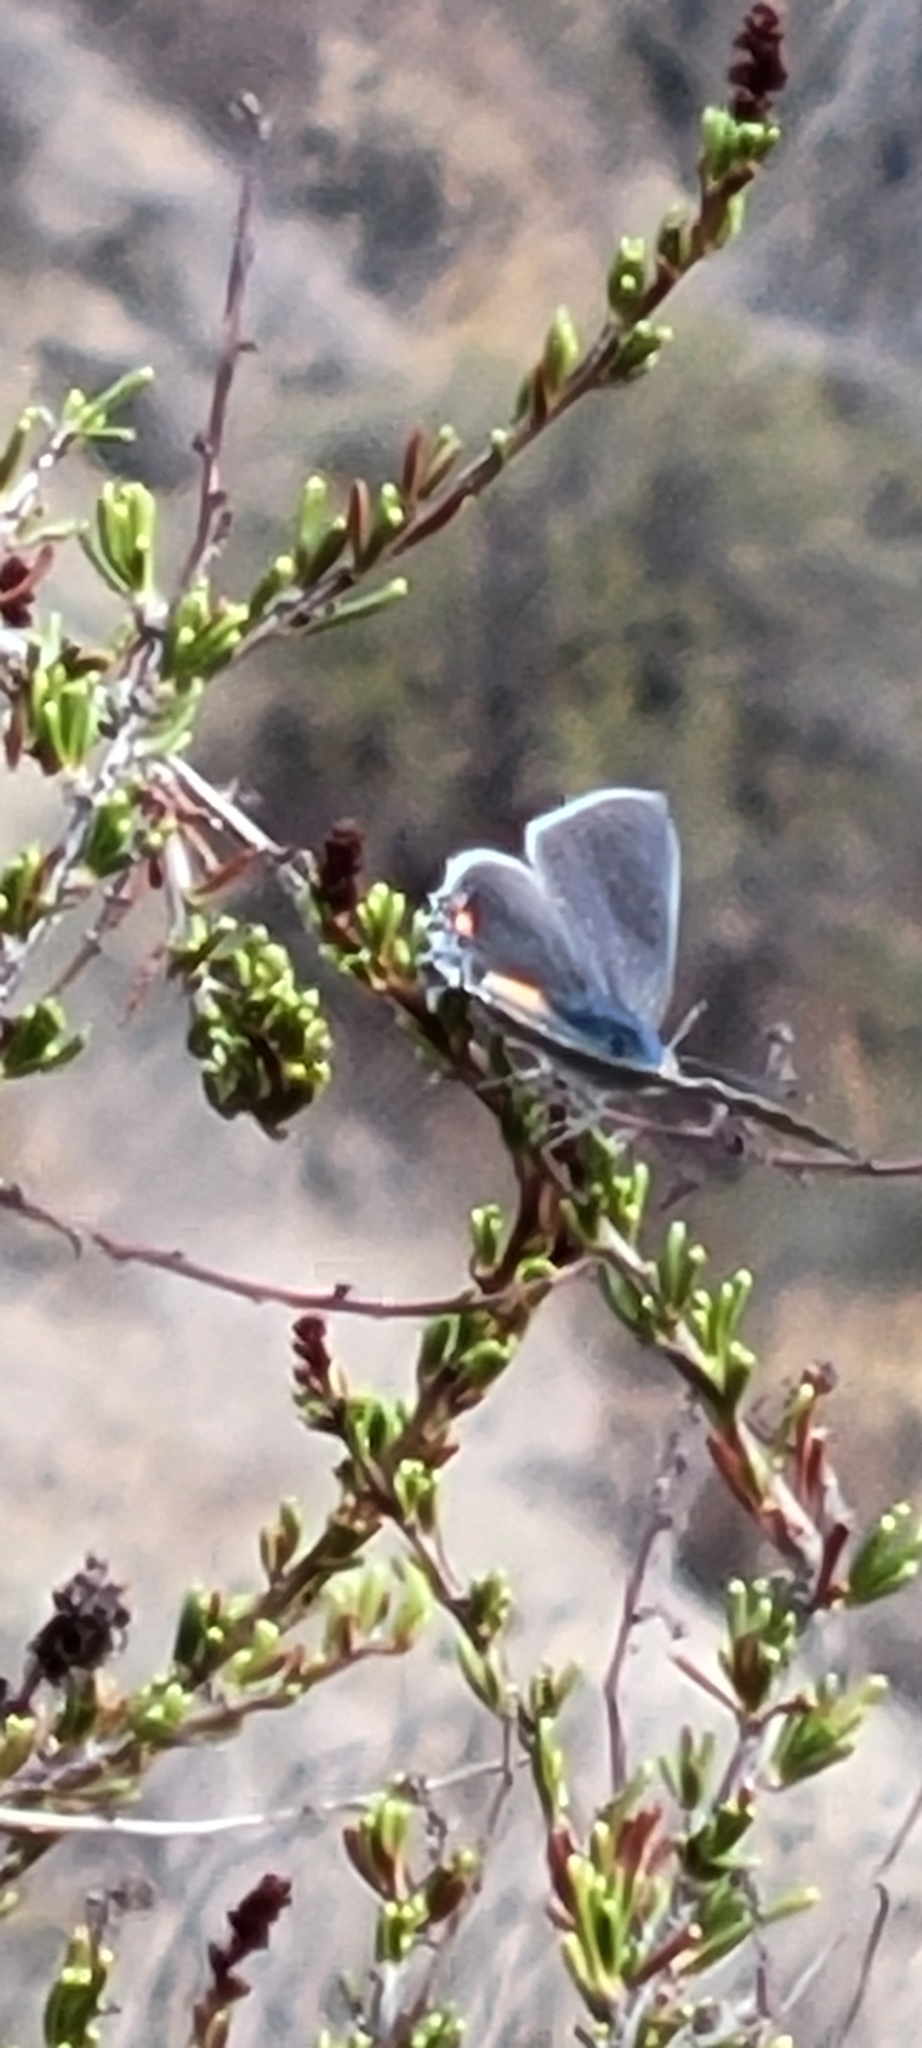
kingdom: Animalia
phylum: Arthropoda
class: Insecta
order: Lepidoptera
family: Lycaenidae
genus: Strymon
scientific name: Strymon melinus
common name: Gray hairstreak
